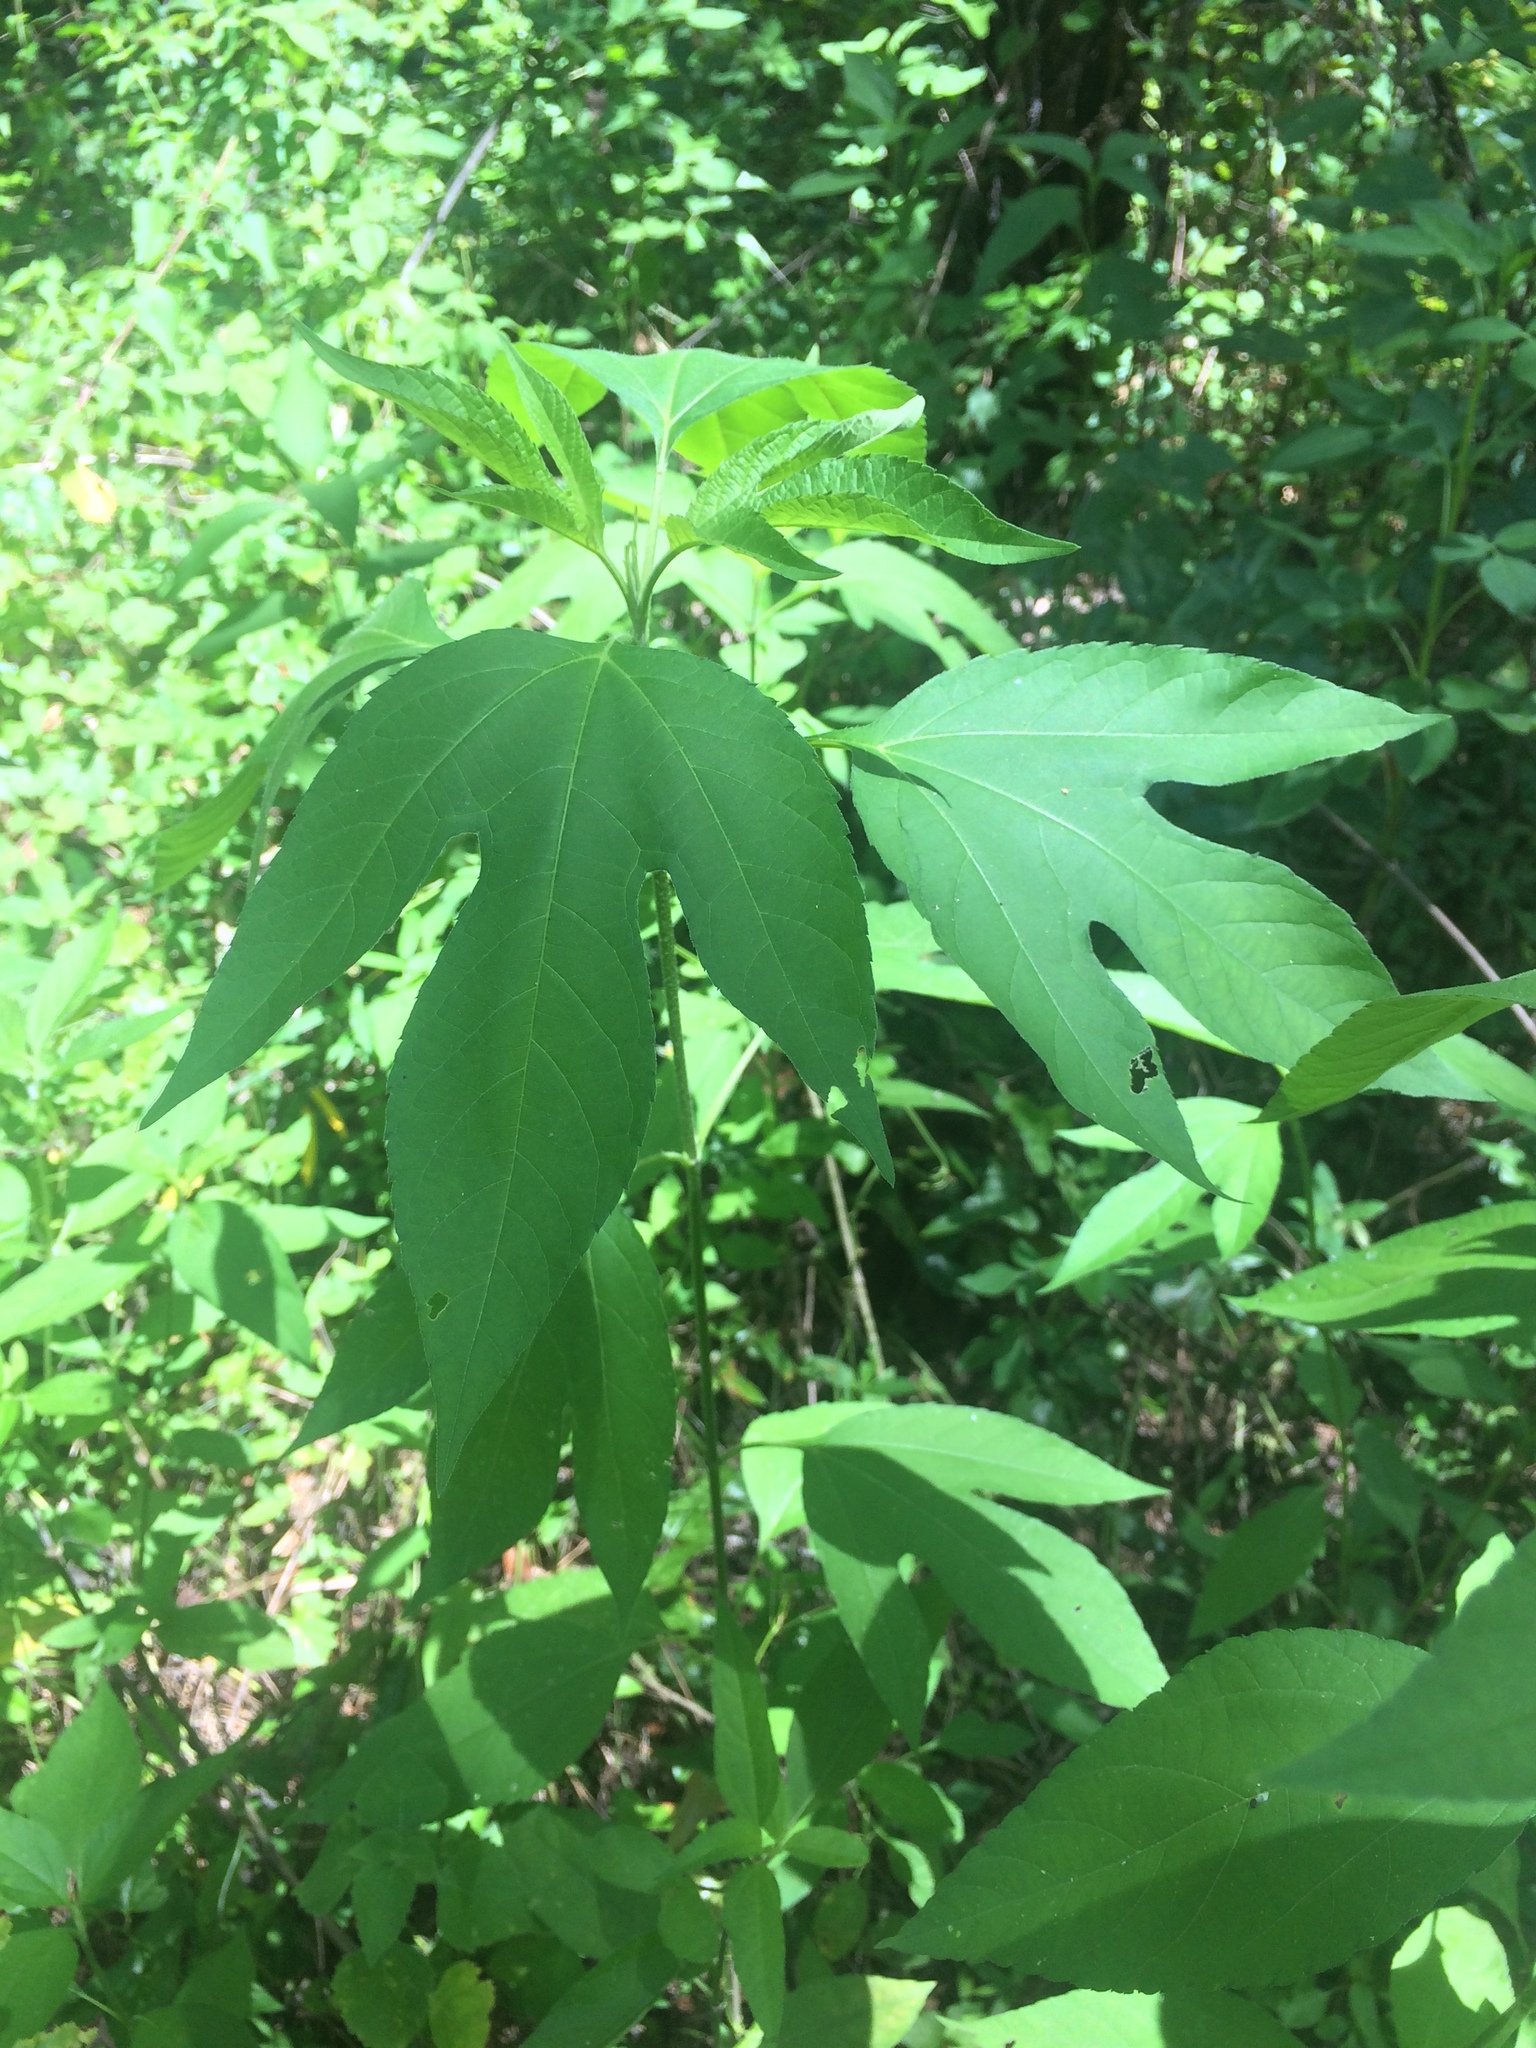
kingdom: Plantae
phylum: Tracheophyta
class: Magnoliopsida
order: Asterales
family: Asteraceae
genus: Ambrosia
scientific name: Ambrosia trifida
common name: Giant ragweed
